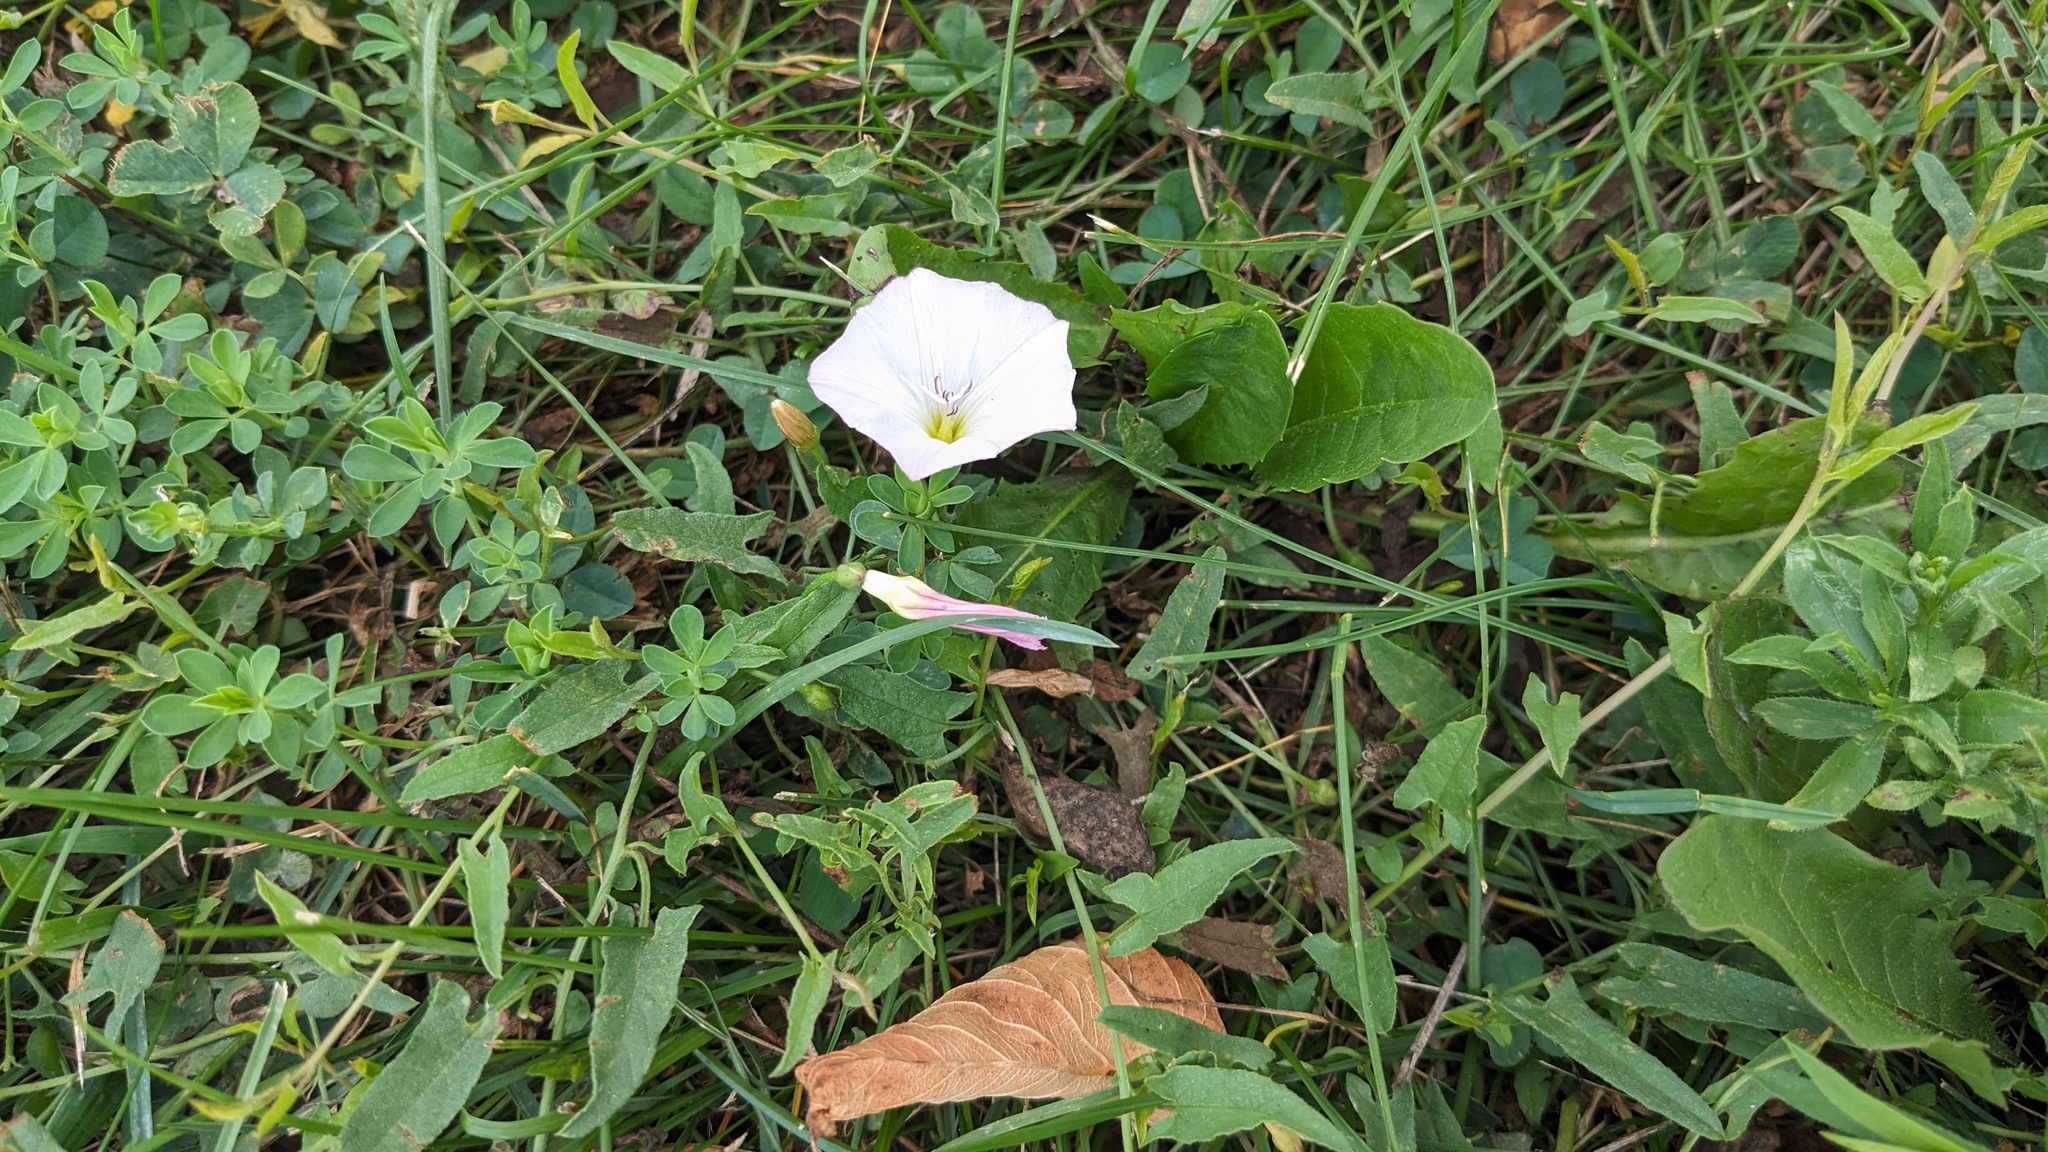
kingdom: Plantae
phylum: Tracheophyta
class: Magnoliopsida
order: Solanales
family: Convolvulaceae
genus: Convolvulus
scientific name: Convolvulus arvensis
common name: Field bindweed
